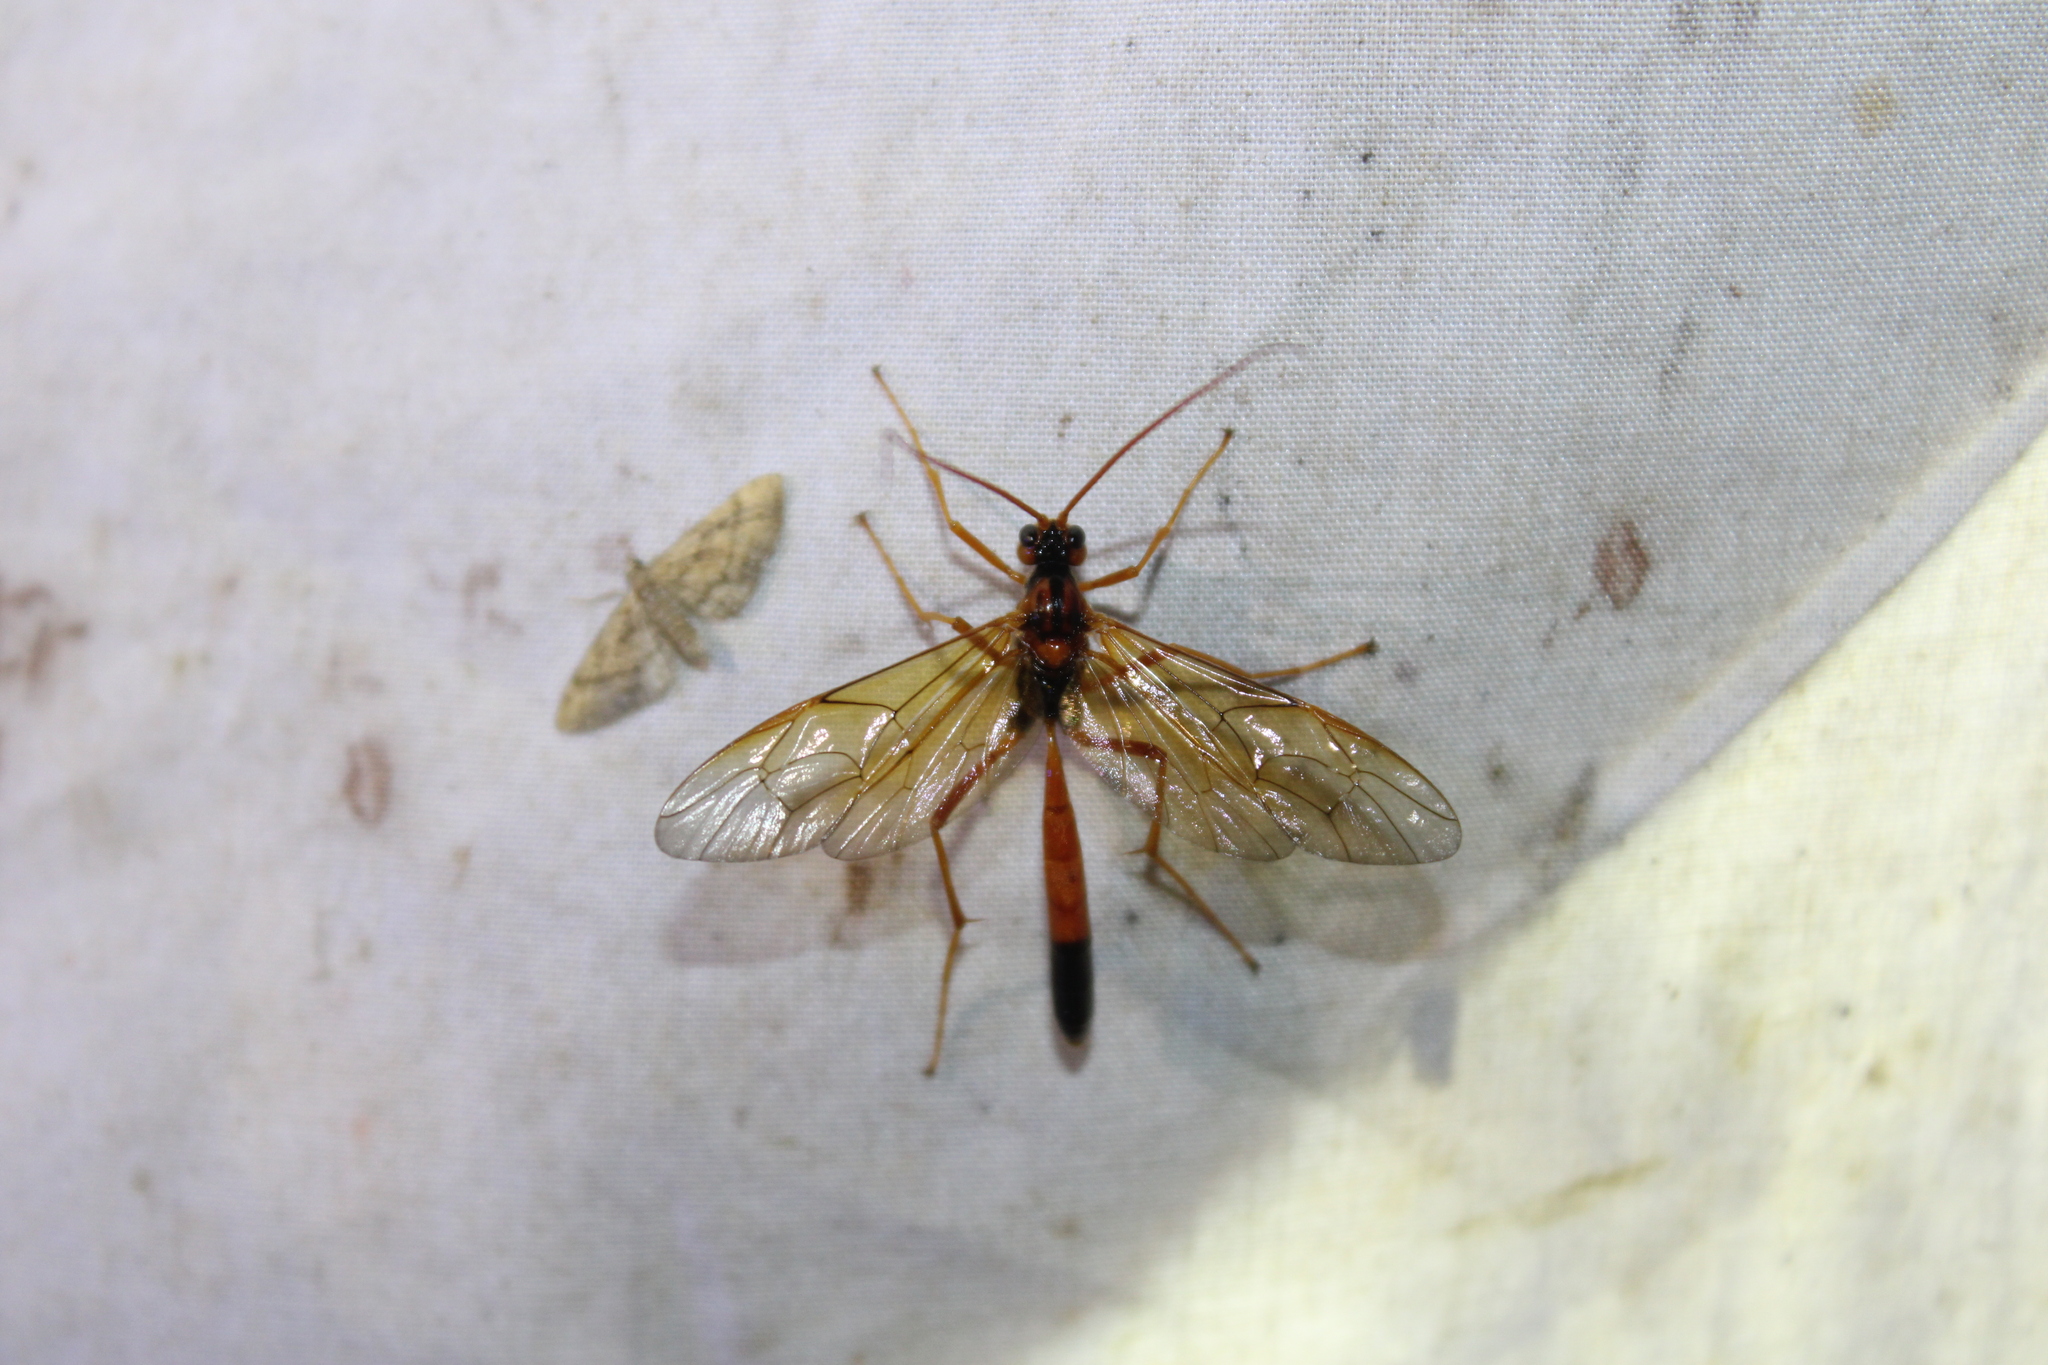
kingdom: Animalia
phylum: Arthropoda
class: Insecta
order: Hymenoptera
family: Ichneumonidae
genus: Opheltes
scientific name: Opheltes glaucopterus
